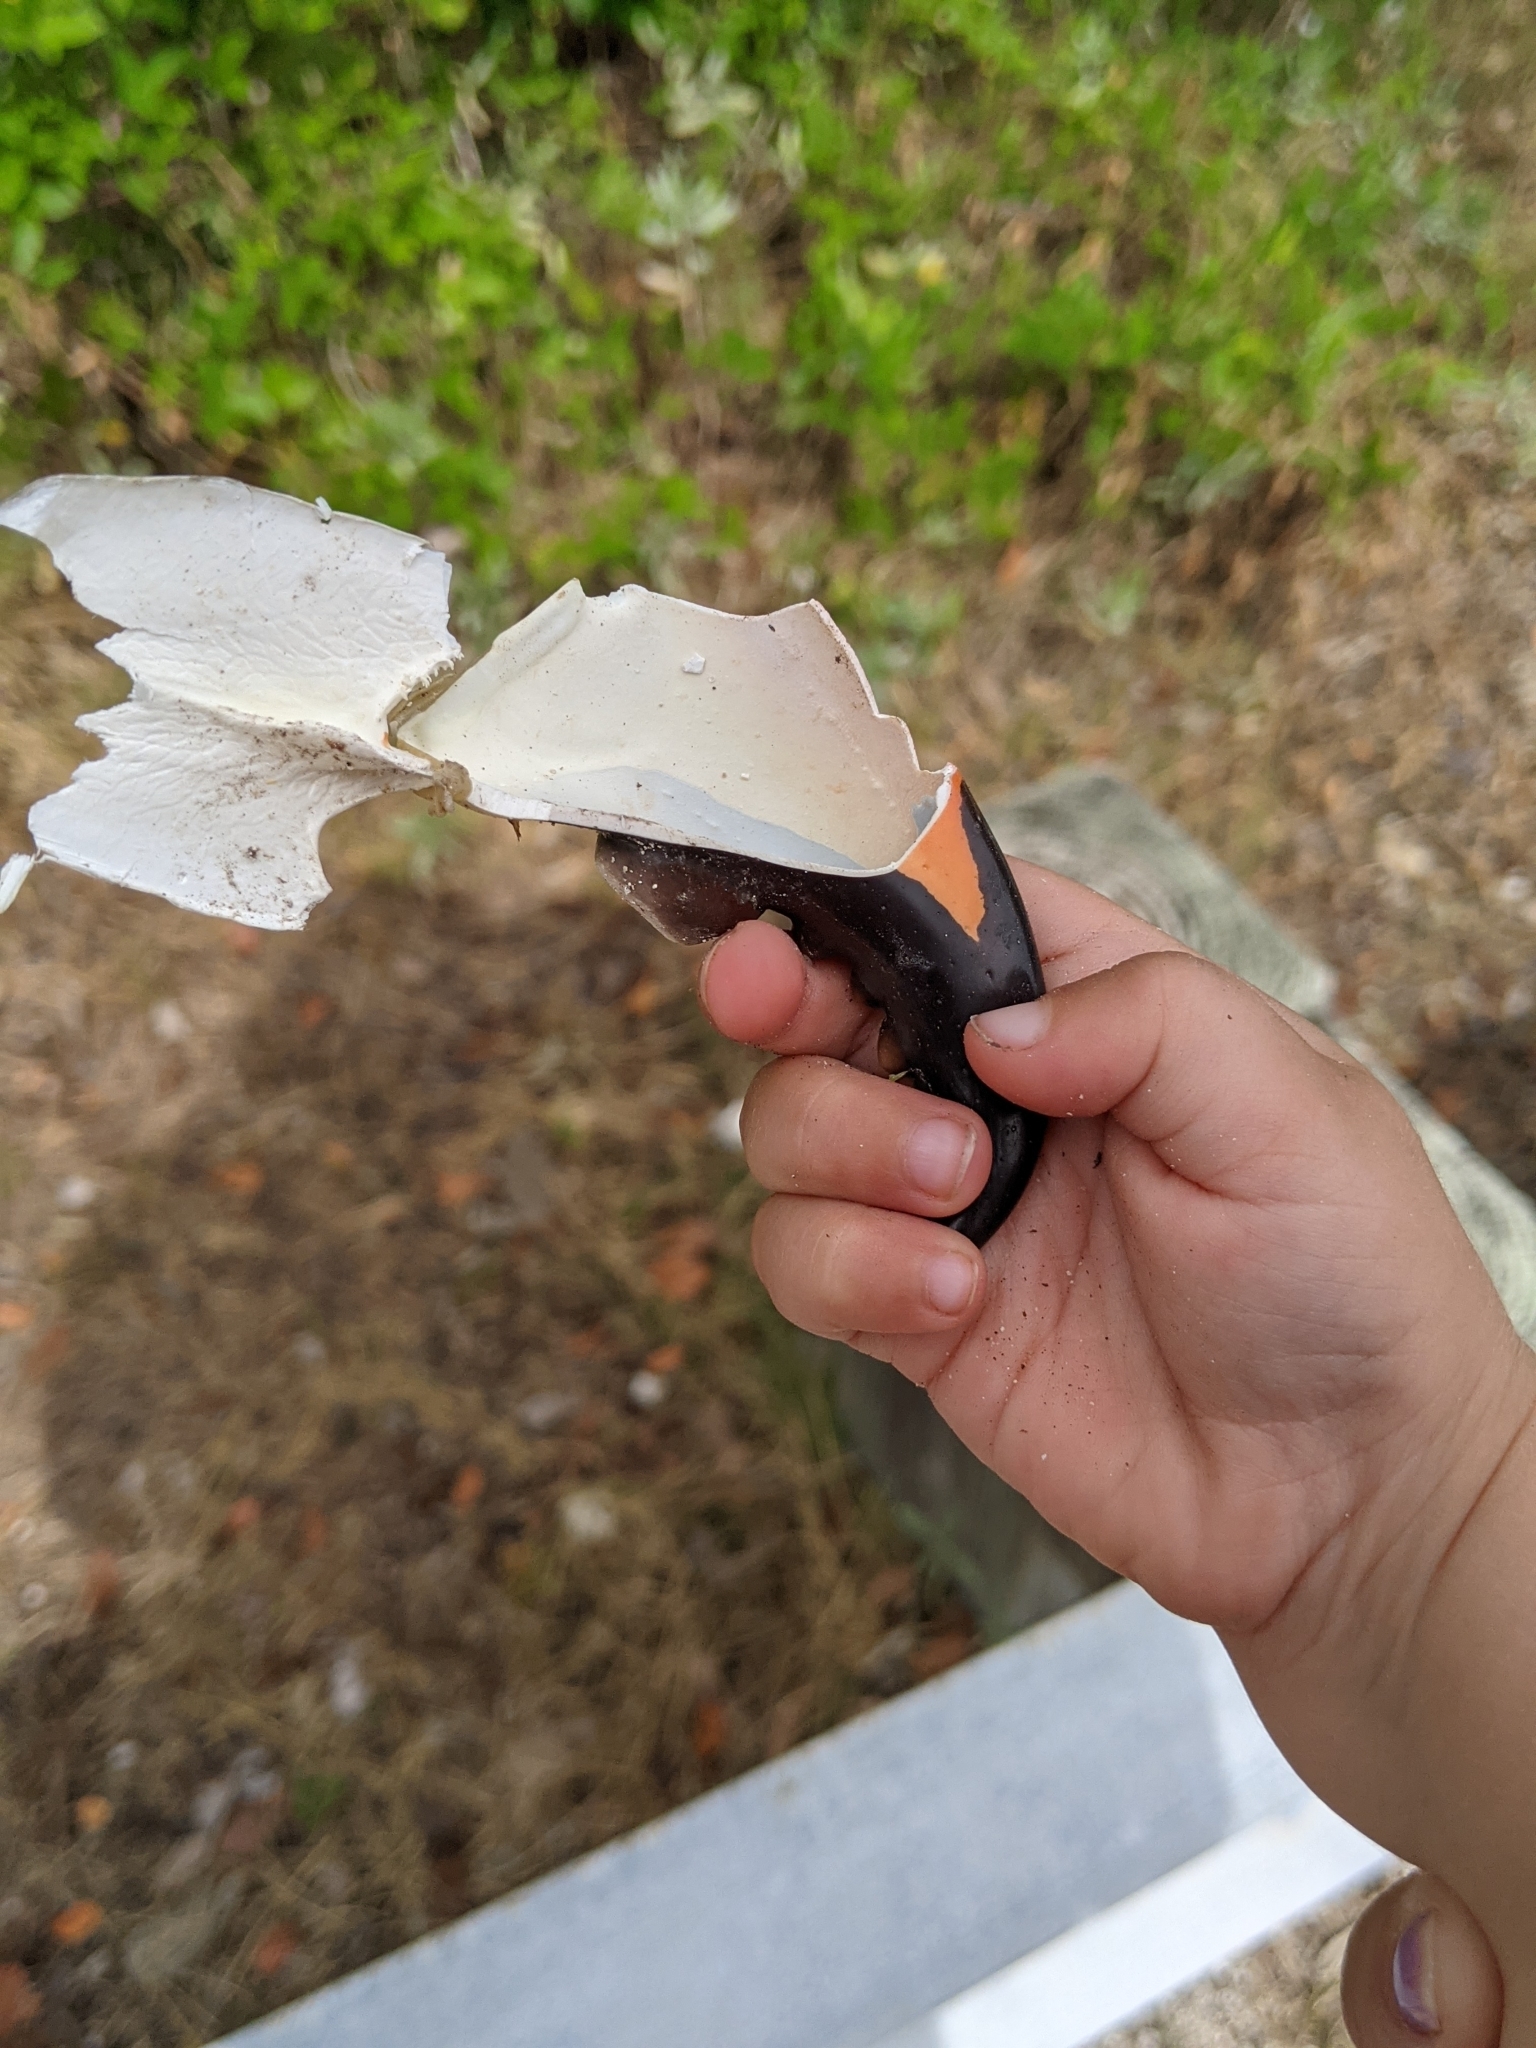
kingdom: Animalia
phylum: Arthropoda
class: Malacostraca
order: Decapoda
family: Menippidae
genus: Menippe
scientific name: Menippe mercenaria
